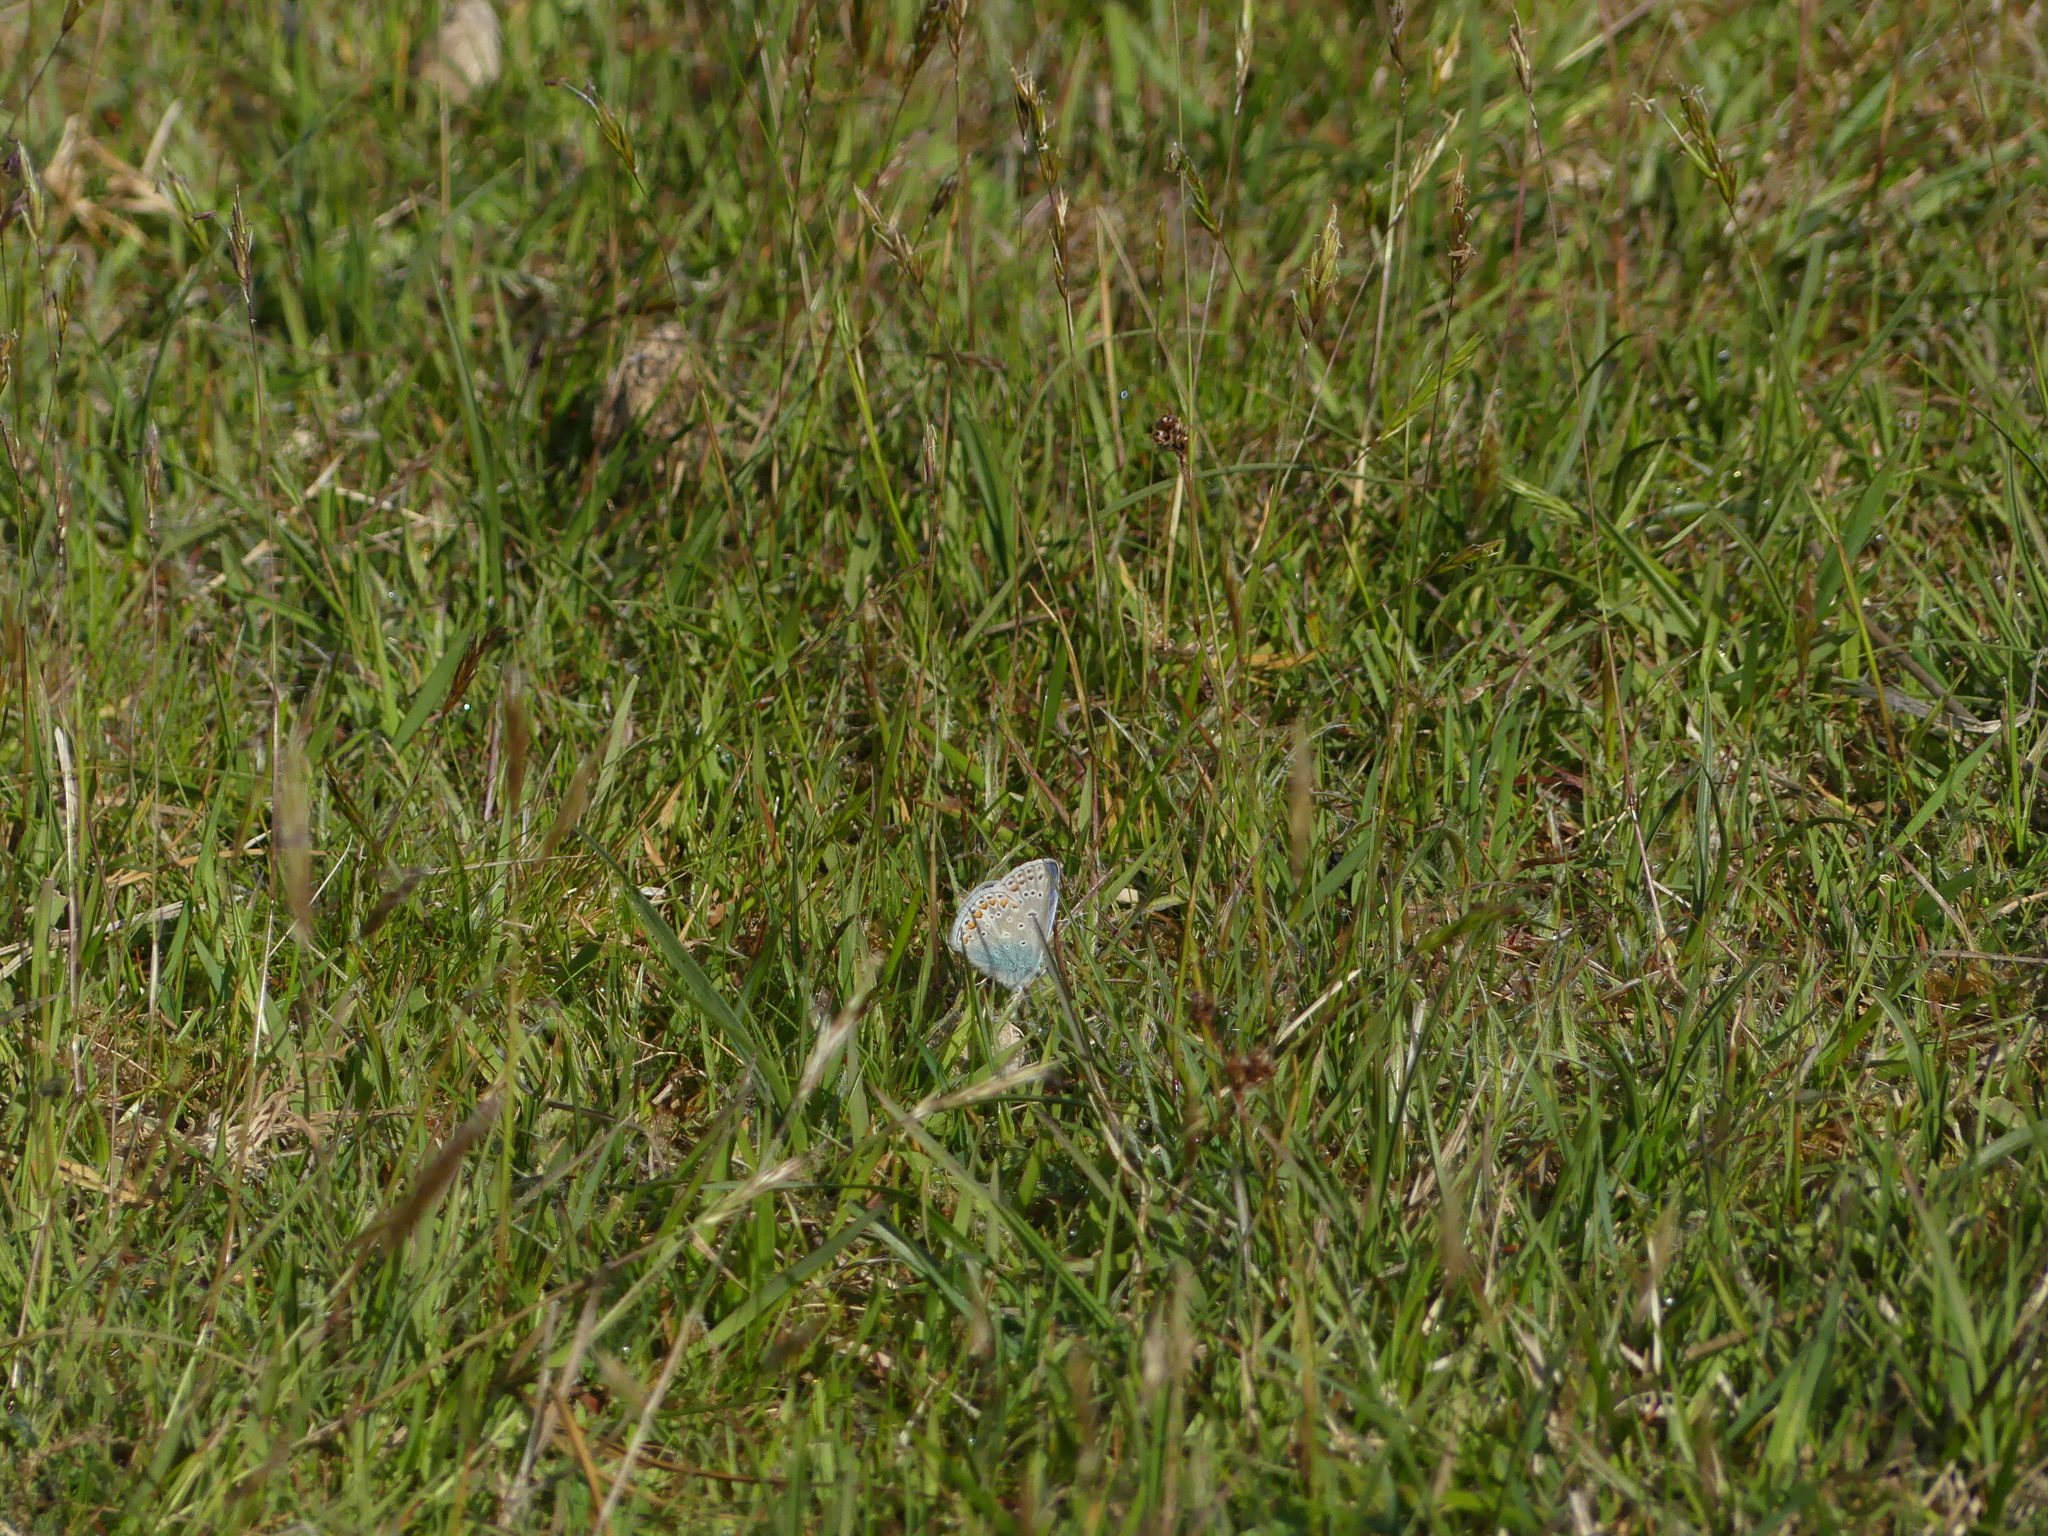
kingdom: Animalia
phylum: Arthropoda
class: Insecta
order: Lepidoptera
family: Lycaenidae
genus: Polyommatus
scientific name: Polyommatus icarus
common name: Common blue
